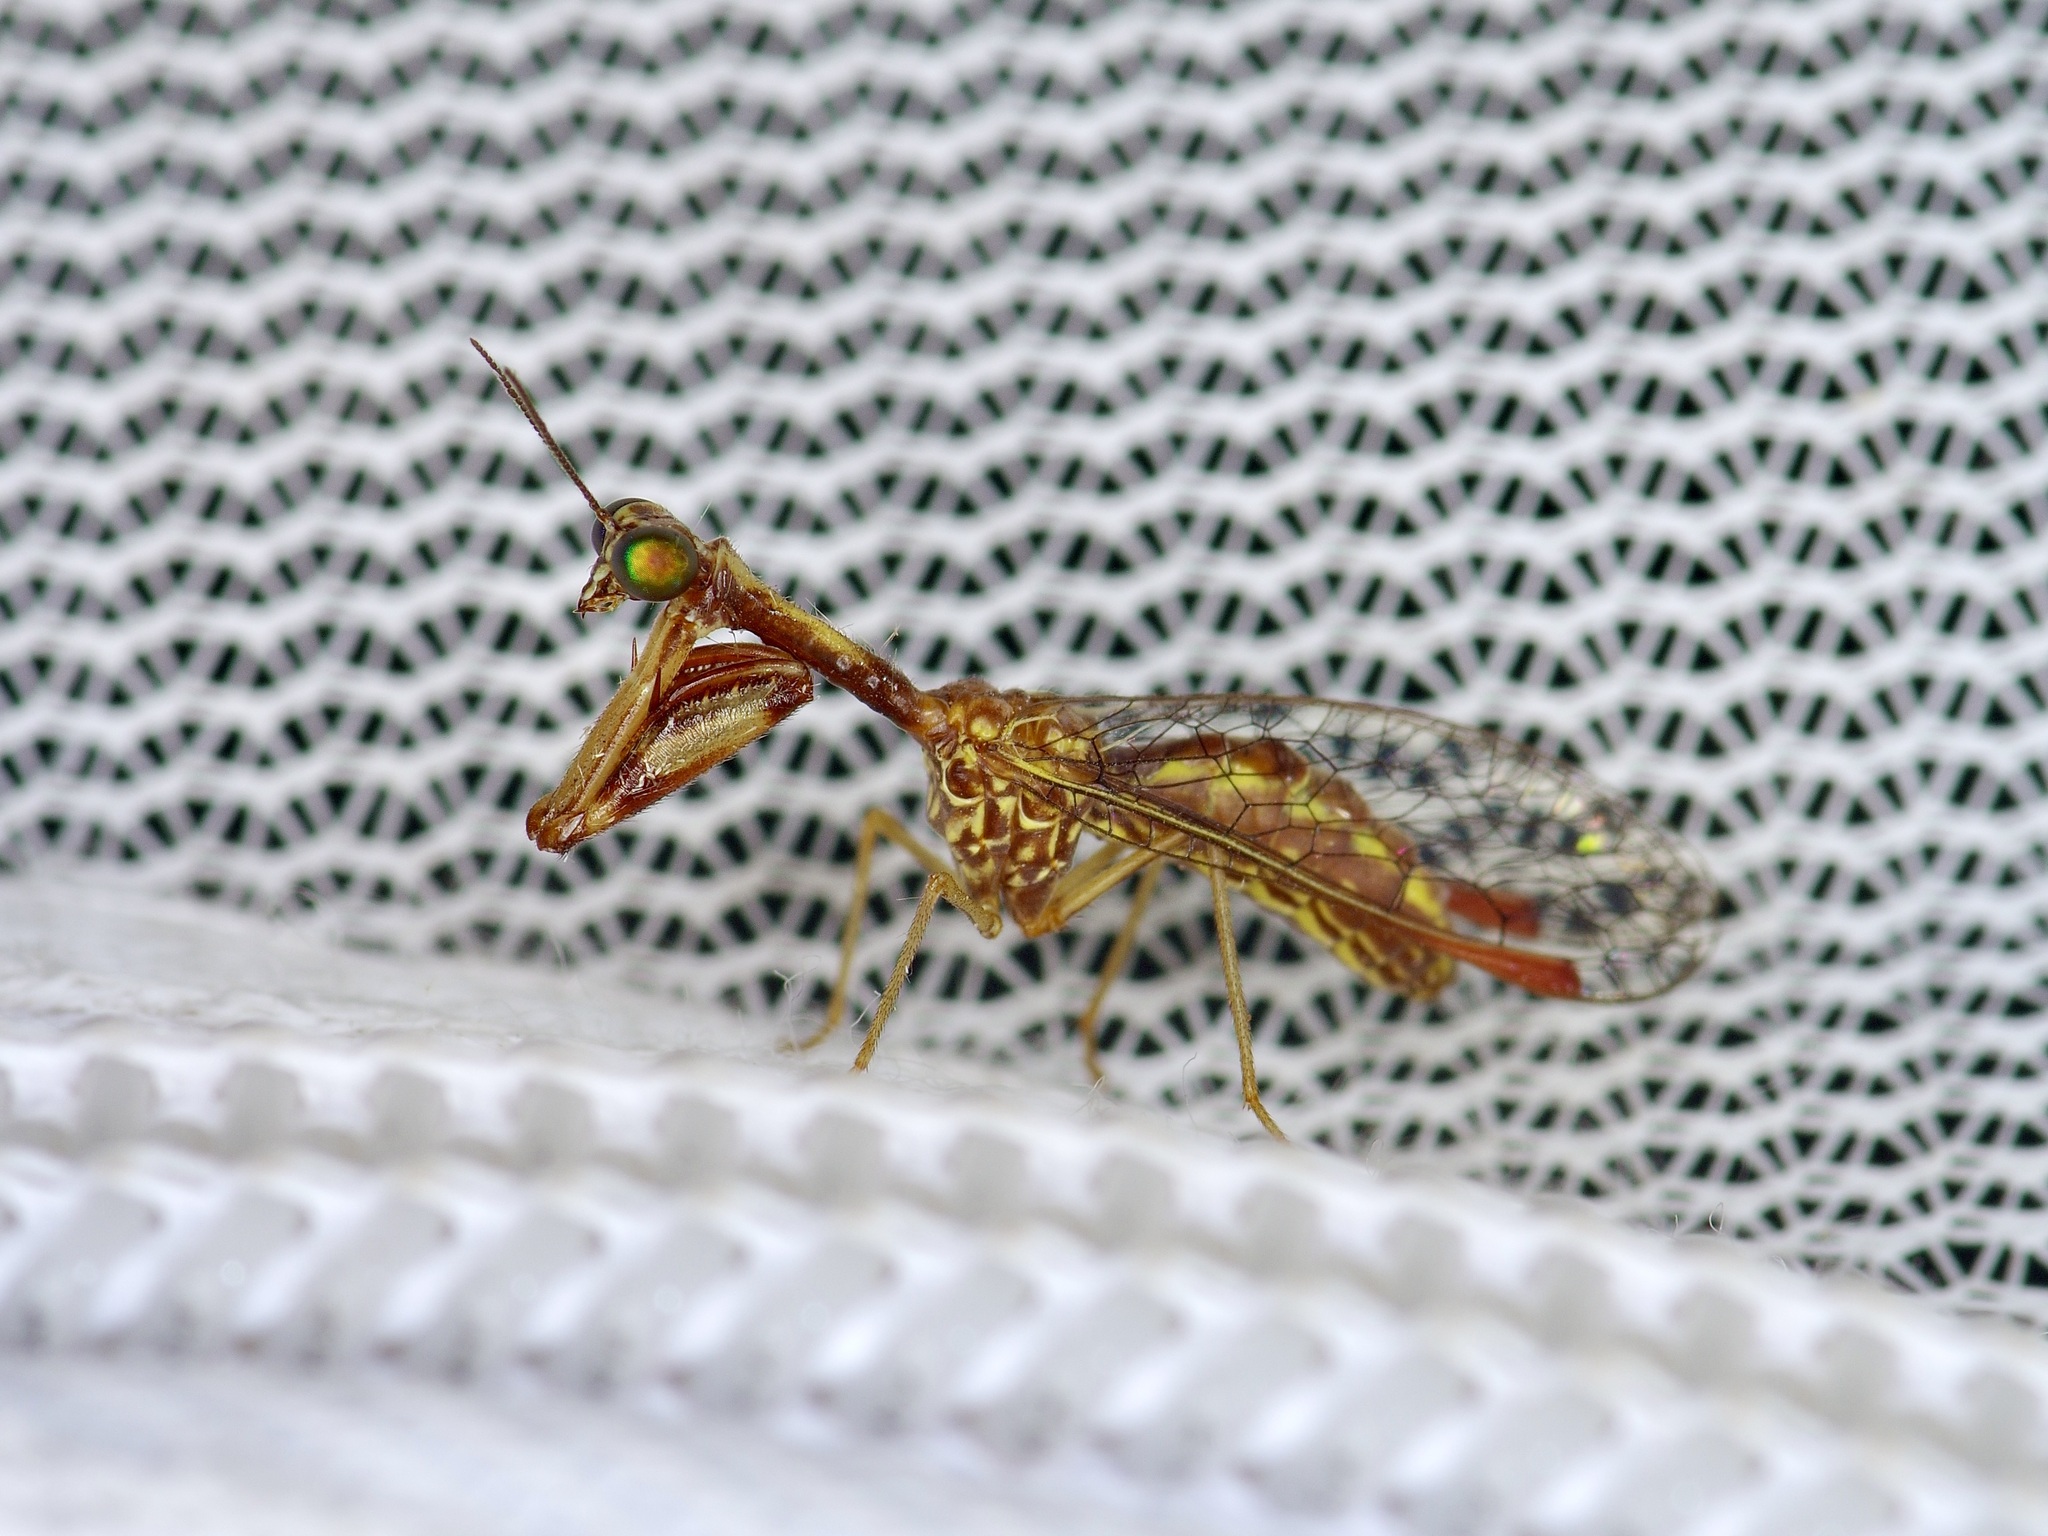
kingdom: Animalia
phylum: Arthropoda
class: Insecta
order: Neuroptera
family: Mantispidae
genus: Leptomantispa
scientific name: Leptomantispa pulchella
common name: Stevens's mantidfly
